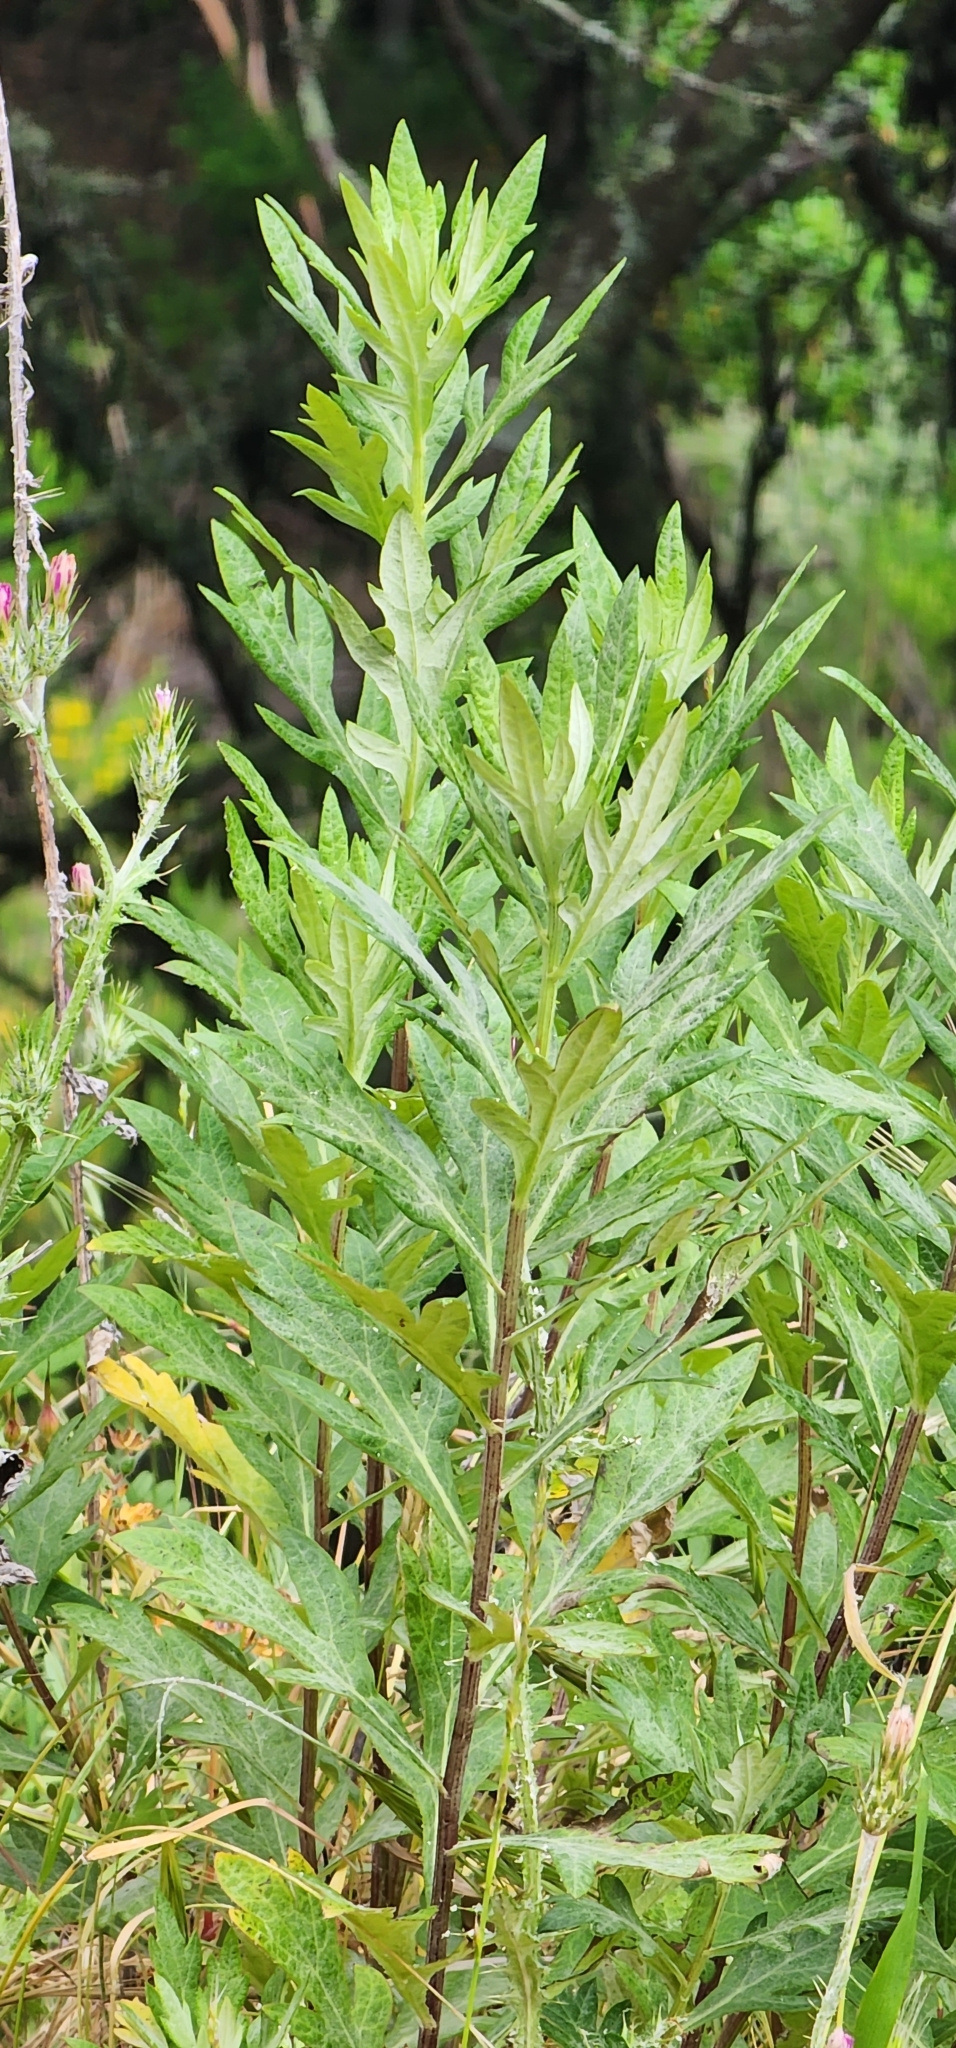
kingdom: Plantae
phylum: Tracheophyta
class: Magnoliopsida
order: Asterales
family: Asteraceae
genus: Artemisia
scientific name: Artemisia douglasiana
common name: Northwest mugwort
